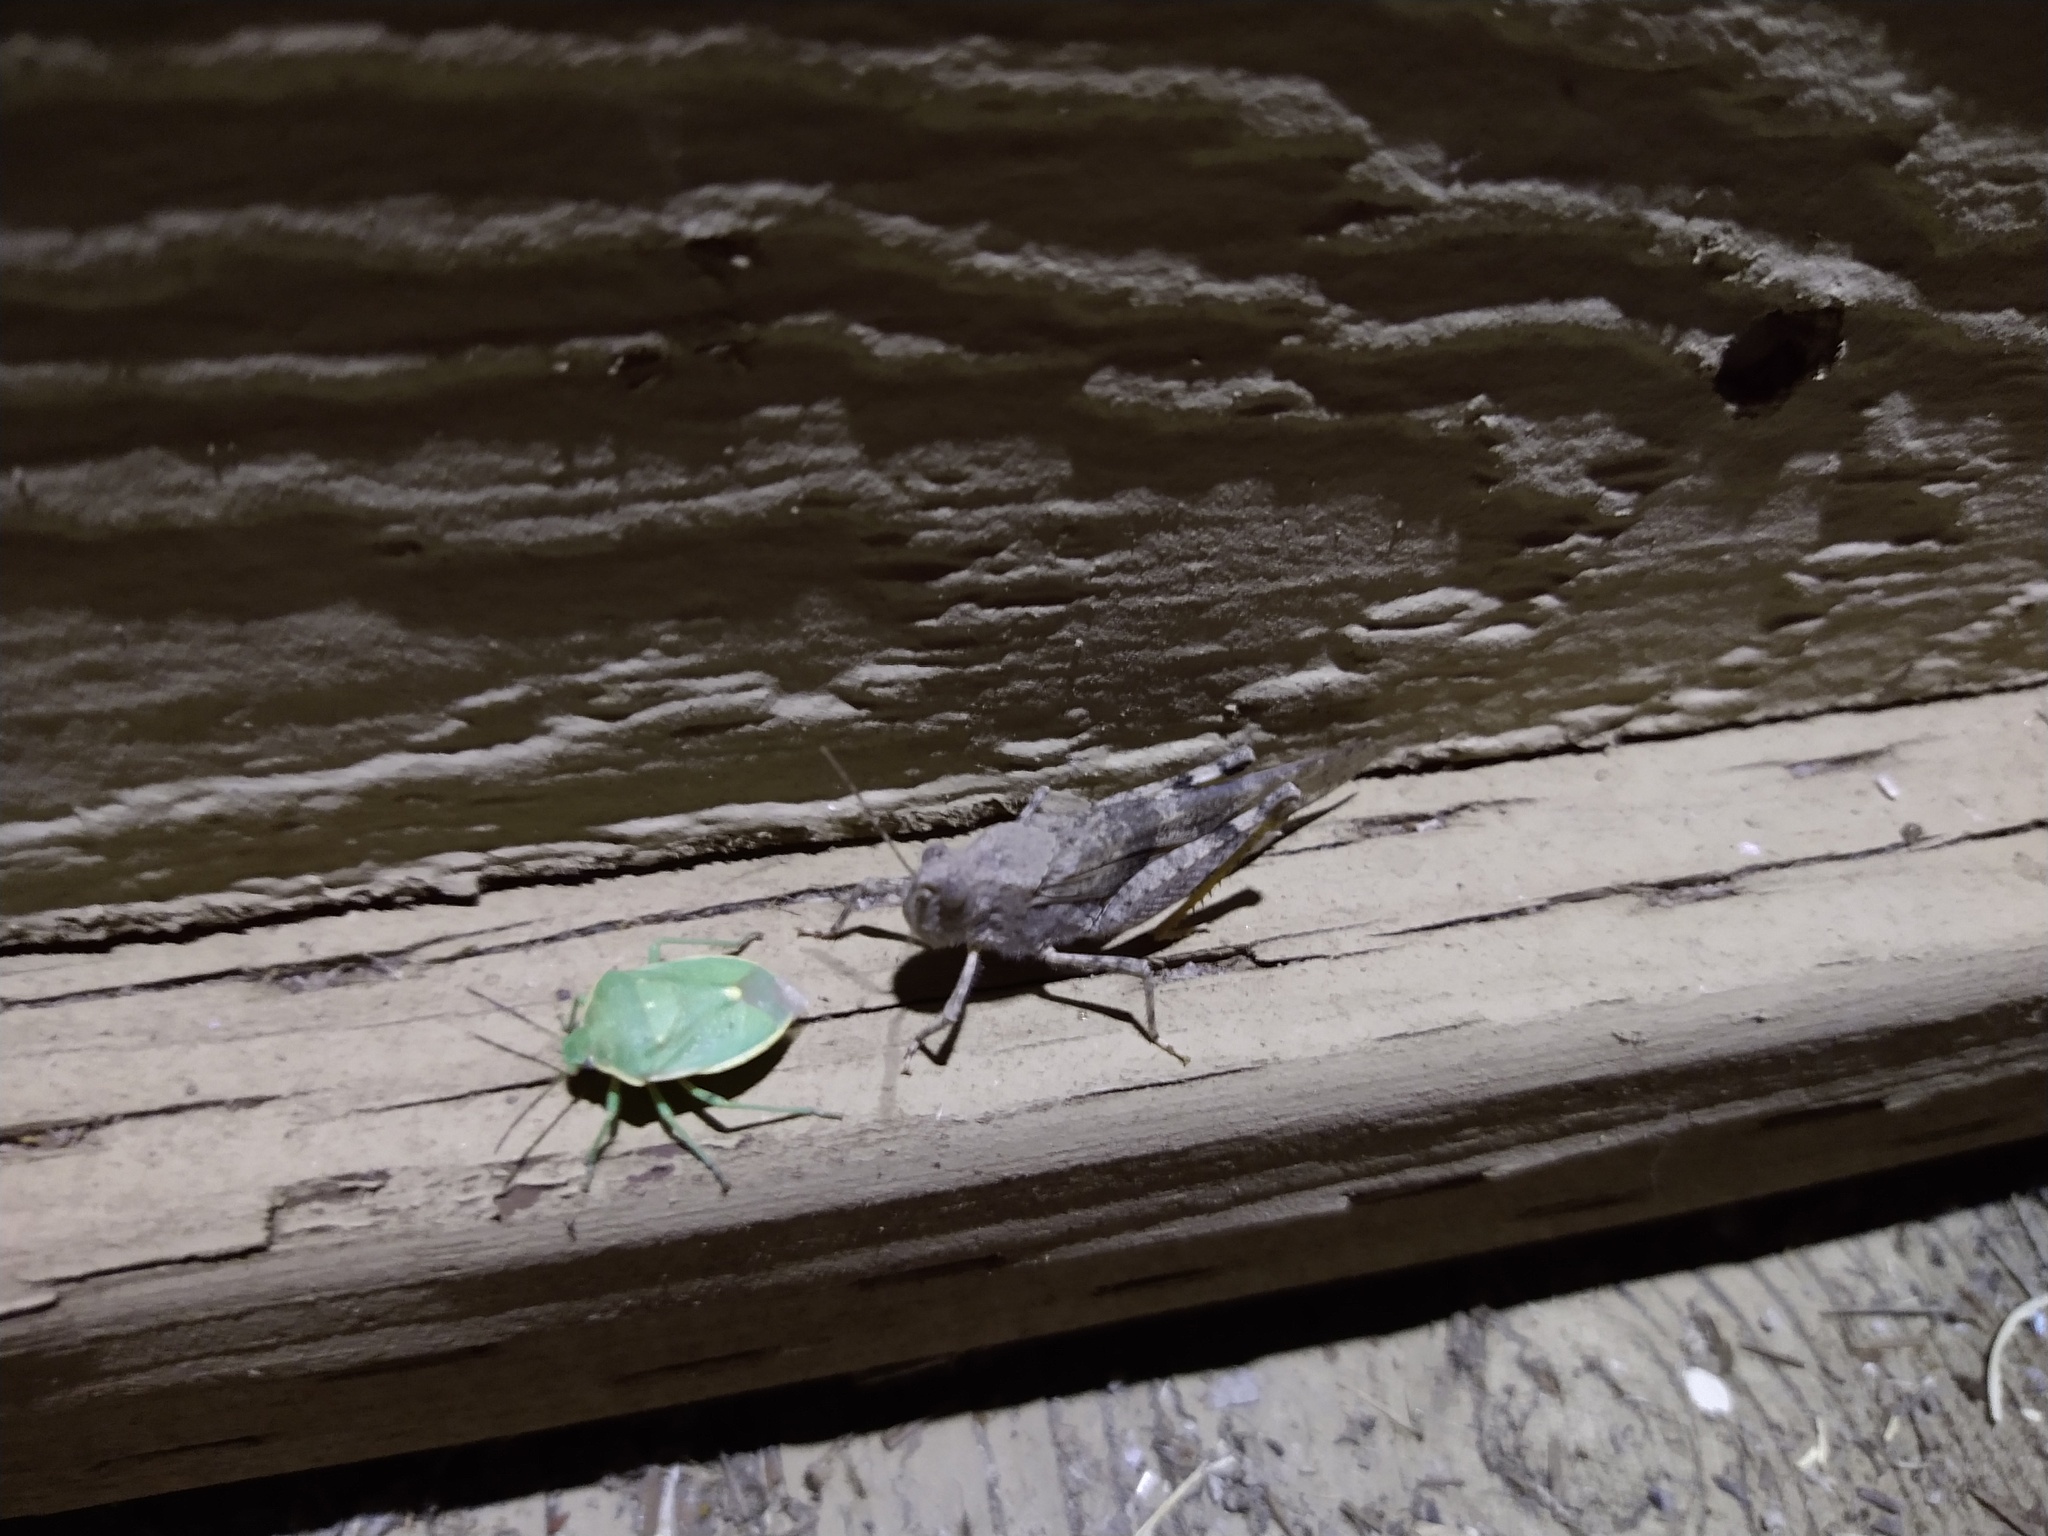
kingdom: Animalia
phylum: Arthropoda
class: Insecta
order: Hemiptera
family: Pentatomidae
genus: Chlorochroa
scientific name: Chlorochroa uhleri
